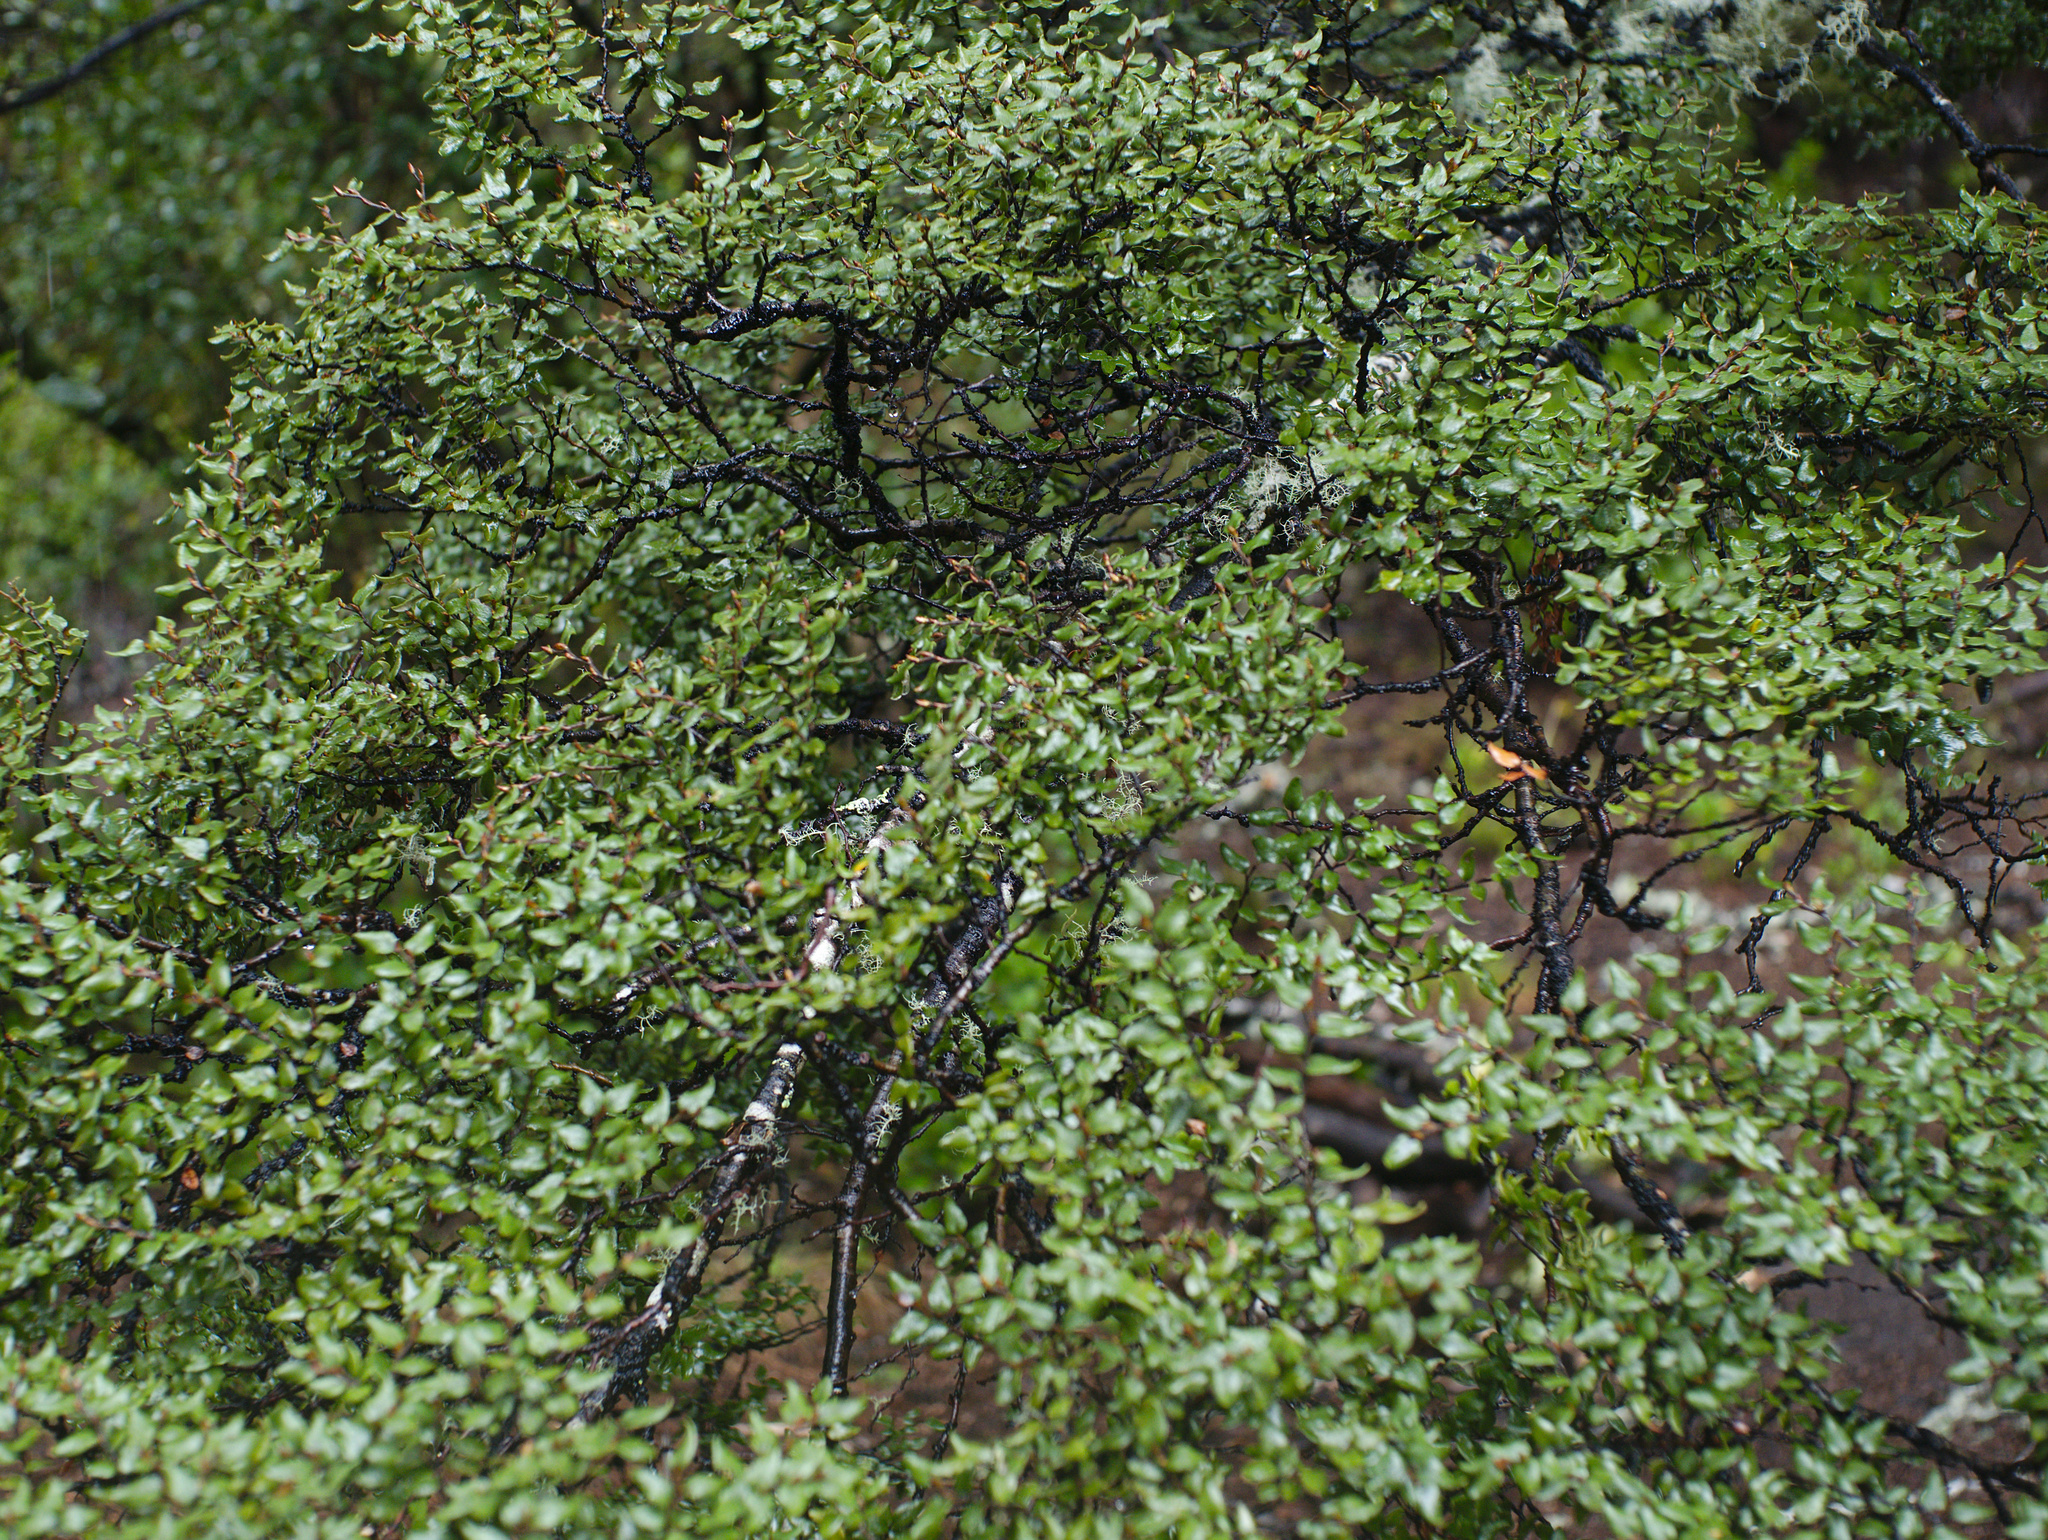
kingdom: Plantae
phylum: Tracheophyta
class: Magnoliopsida
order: Fagales
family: Nothofagaceae
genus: Nothofagus
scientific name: Nothofagus cliffortioides
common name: Mountain beech
